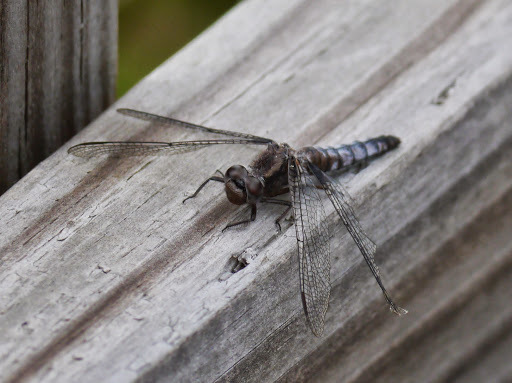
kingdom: Animalia
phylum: Arthropoda
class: Insecta
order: Odonata
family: Libellulidae
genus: Ladona
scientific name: Ladona deplanata
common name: Blue corporal
